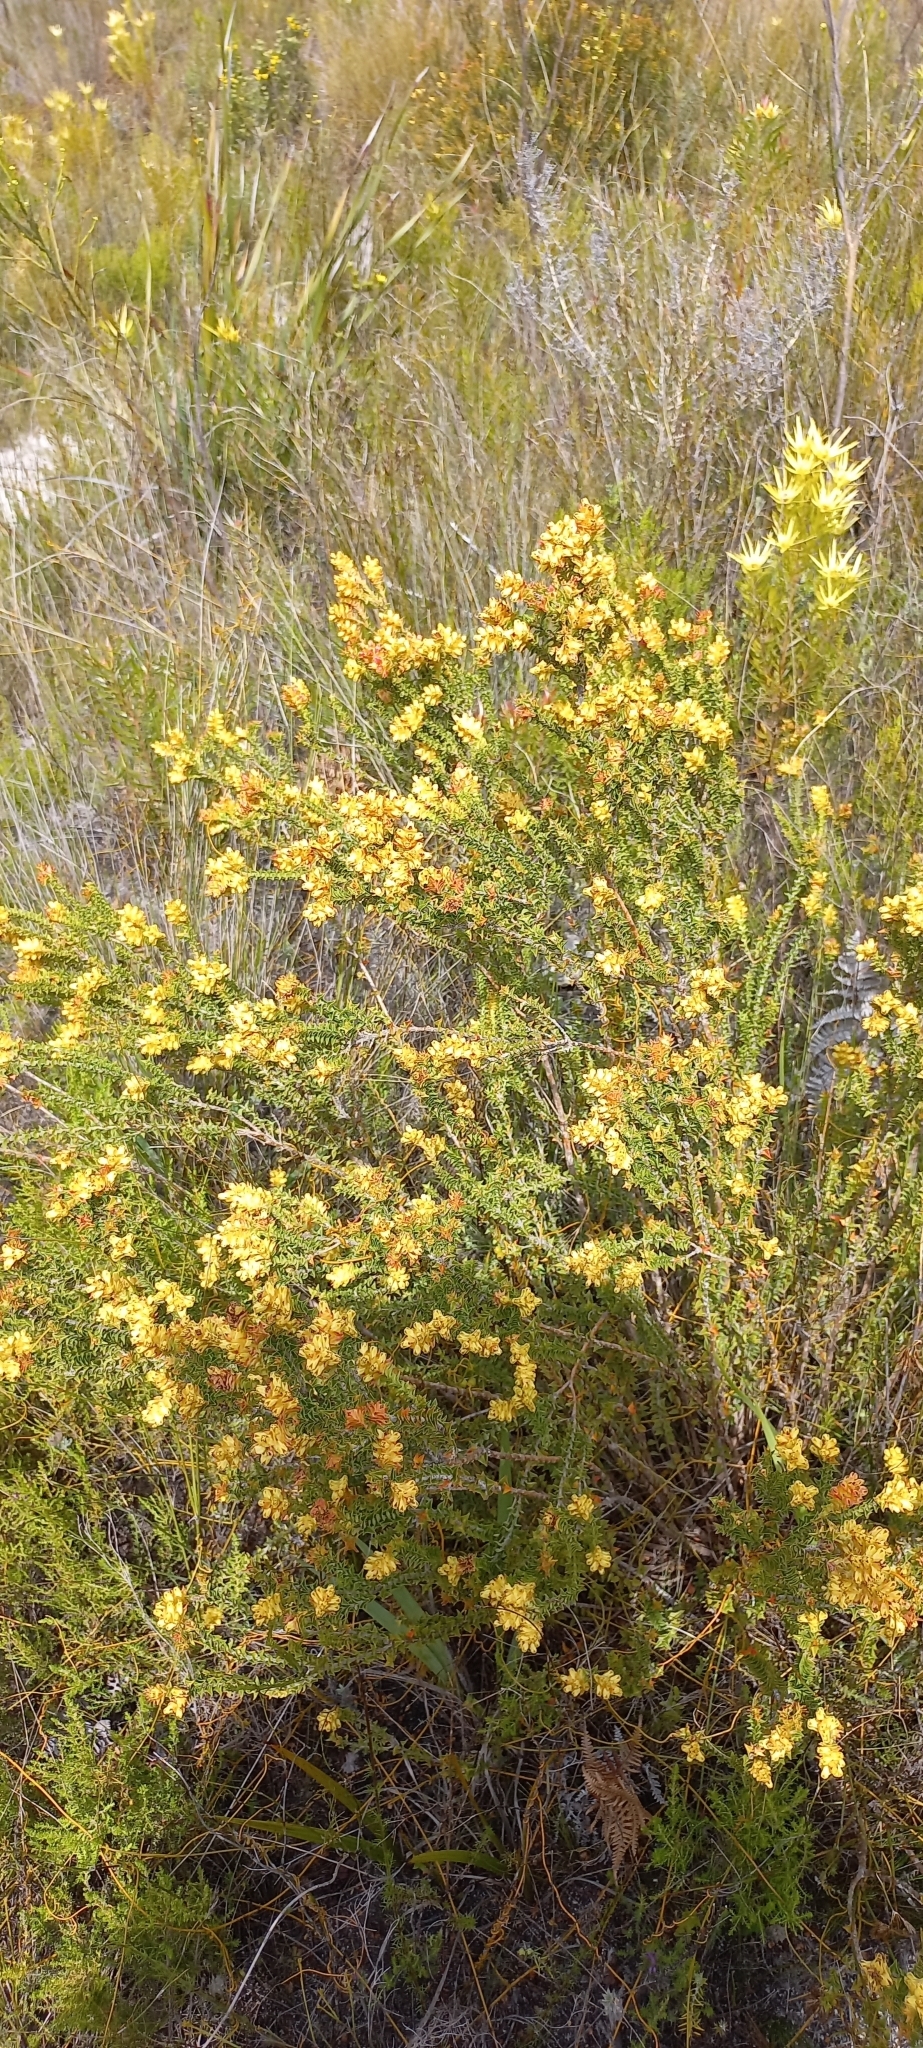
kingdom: Plantae
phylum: Tracheophyta
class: Magnoliopsida
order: Myrtales
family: Penaeaceae
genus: Penaea
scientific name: Penaea mucronata
